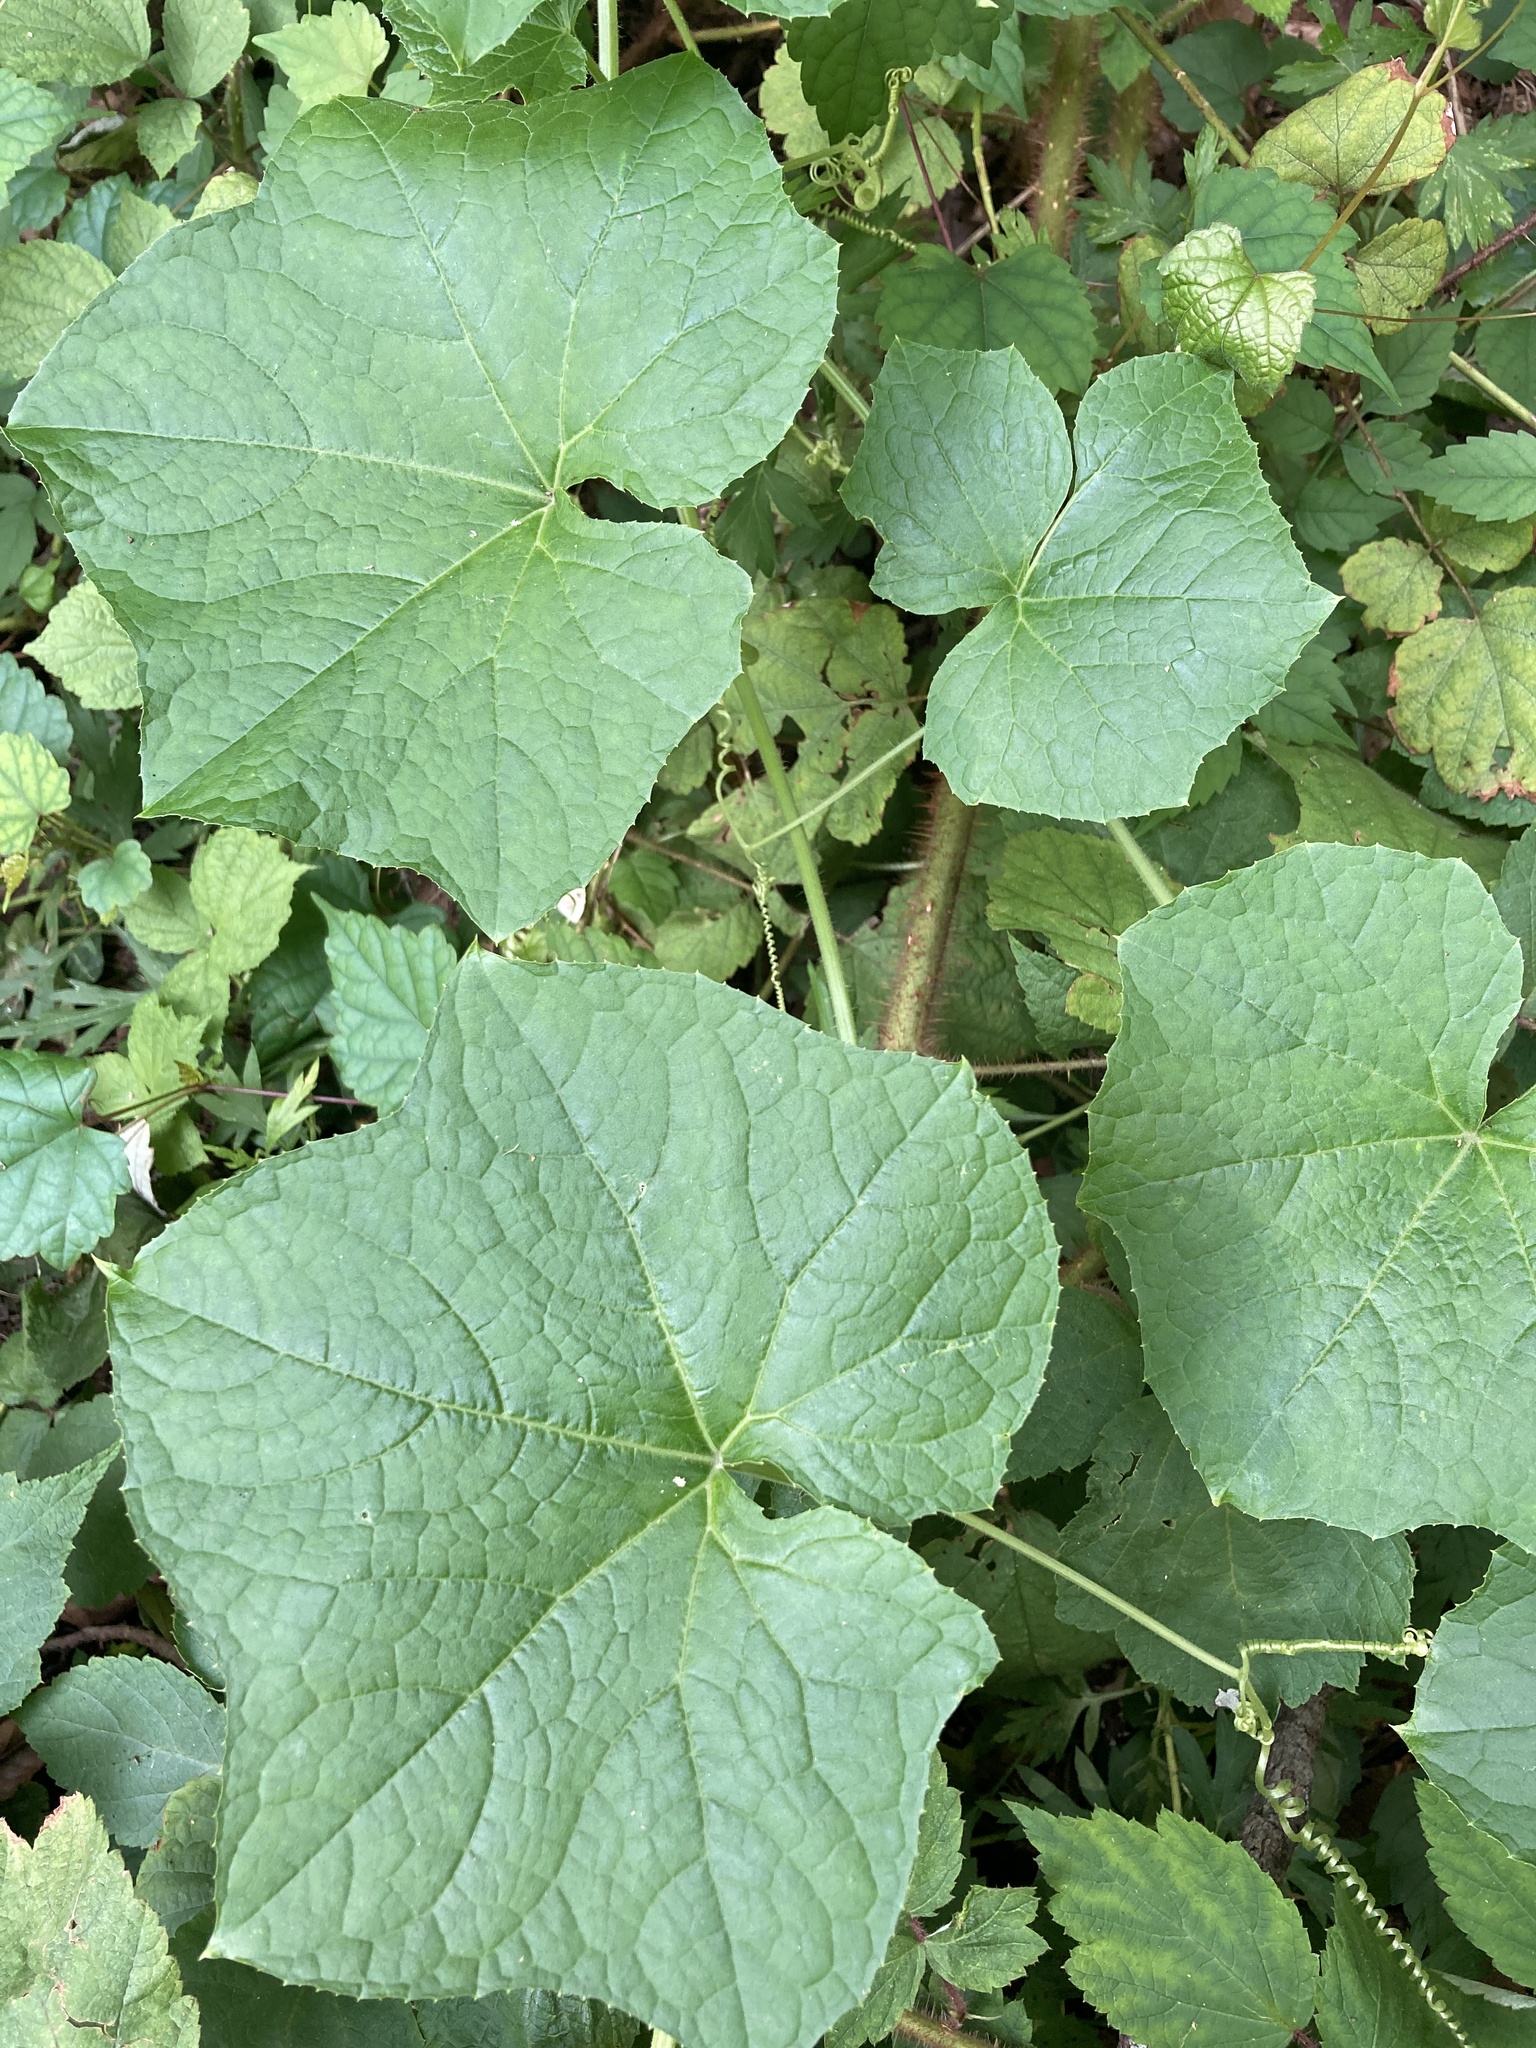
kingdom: Plantae
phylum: Tracheophyta
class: Magnoliopsida
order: Cucurbitales
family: Cucurbitaceae
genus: Sicyos
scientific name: Sicyos angulatus
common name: Angled burr cucumber
